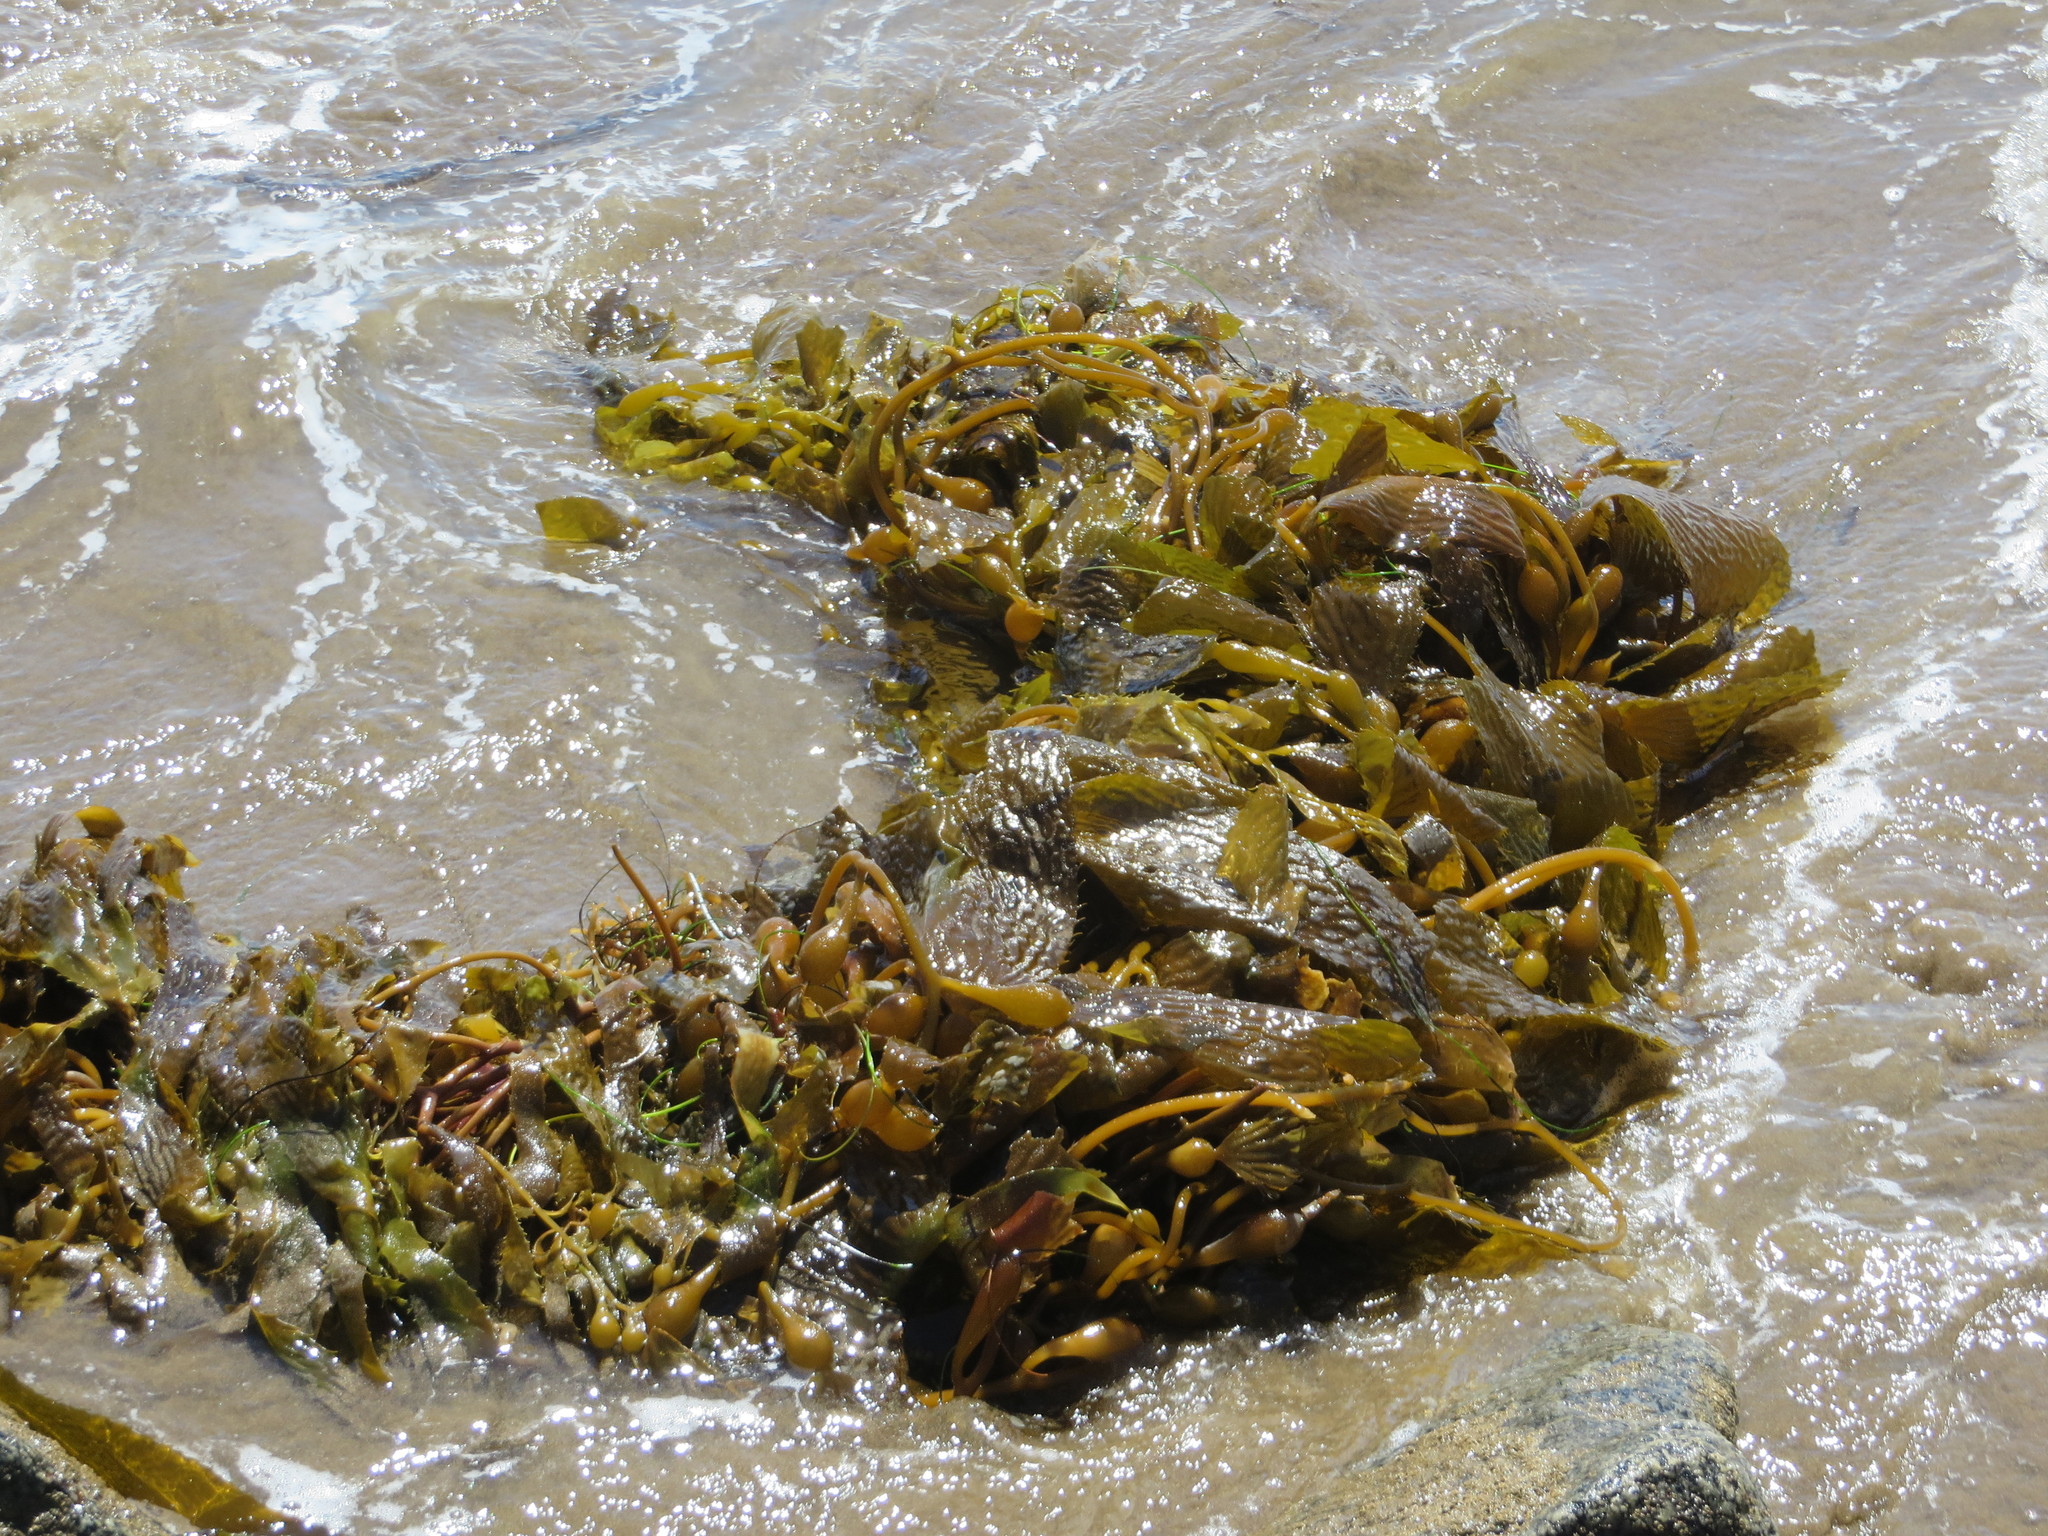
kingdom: Chromista
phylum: Ochrophyta
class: Phaeophyceae
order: Laminariales
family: Laminariaceae
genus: Macrocystis
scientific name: Macrocystis pyrifera
